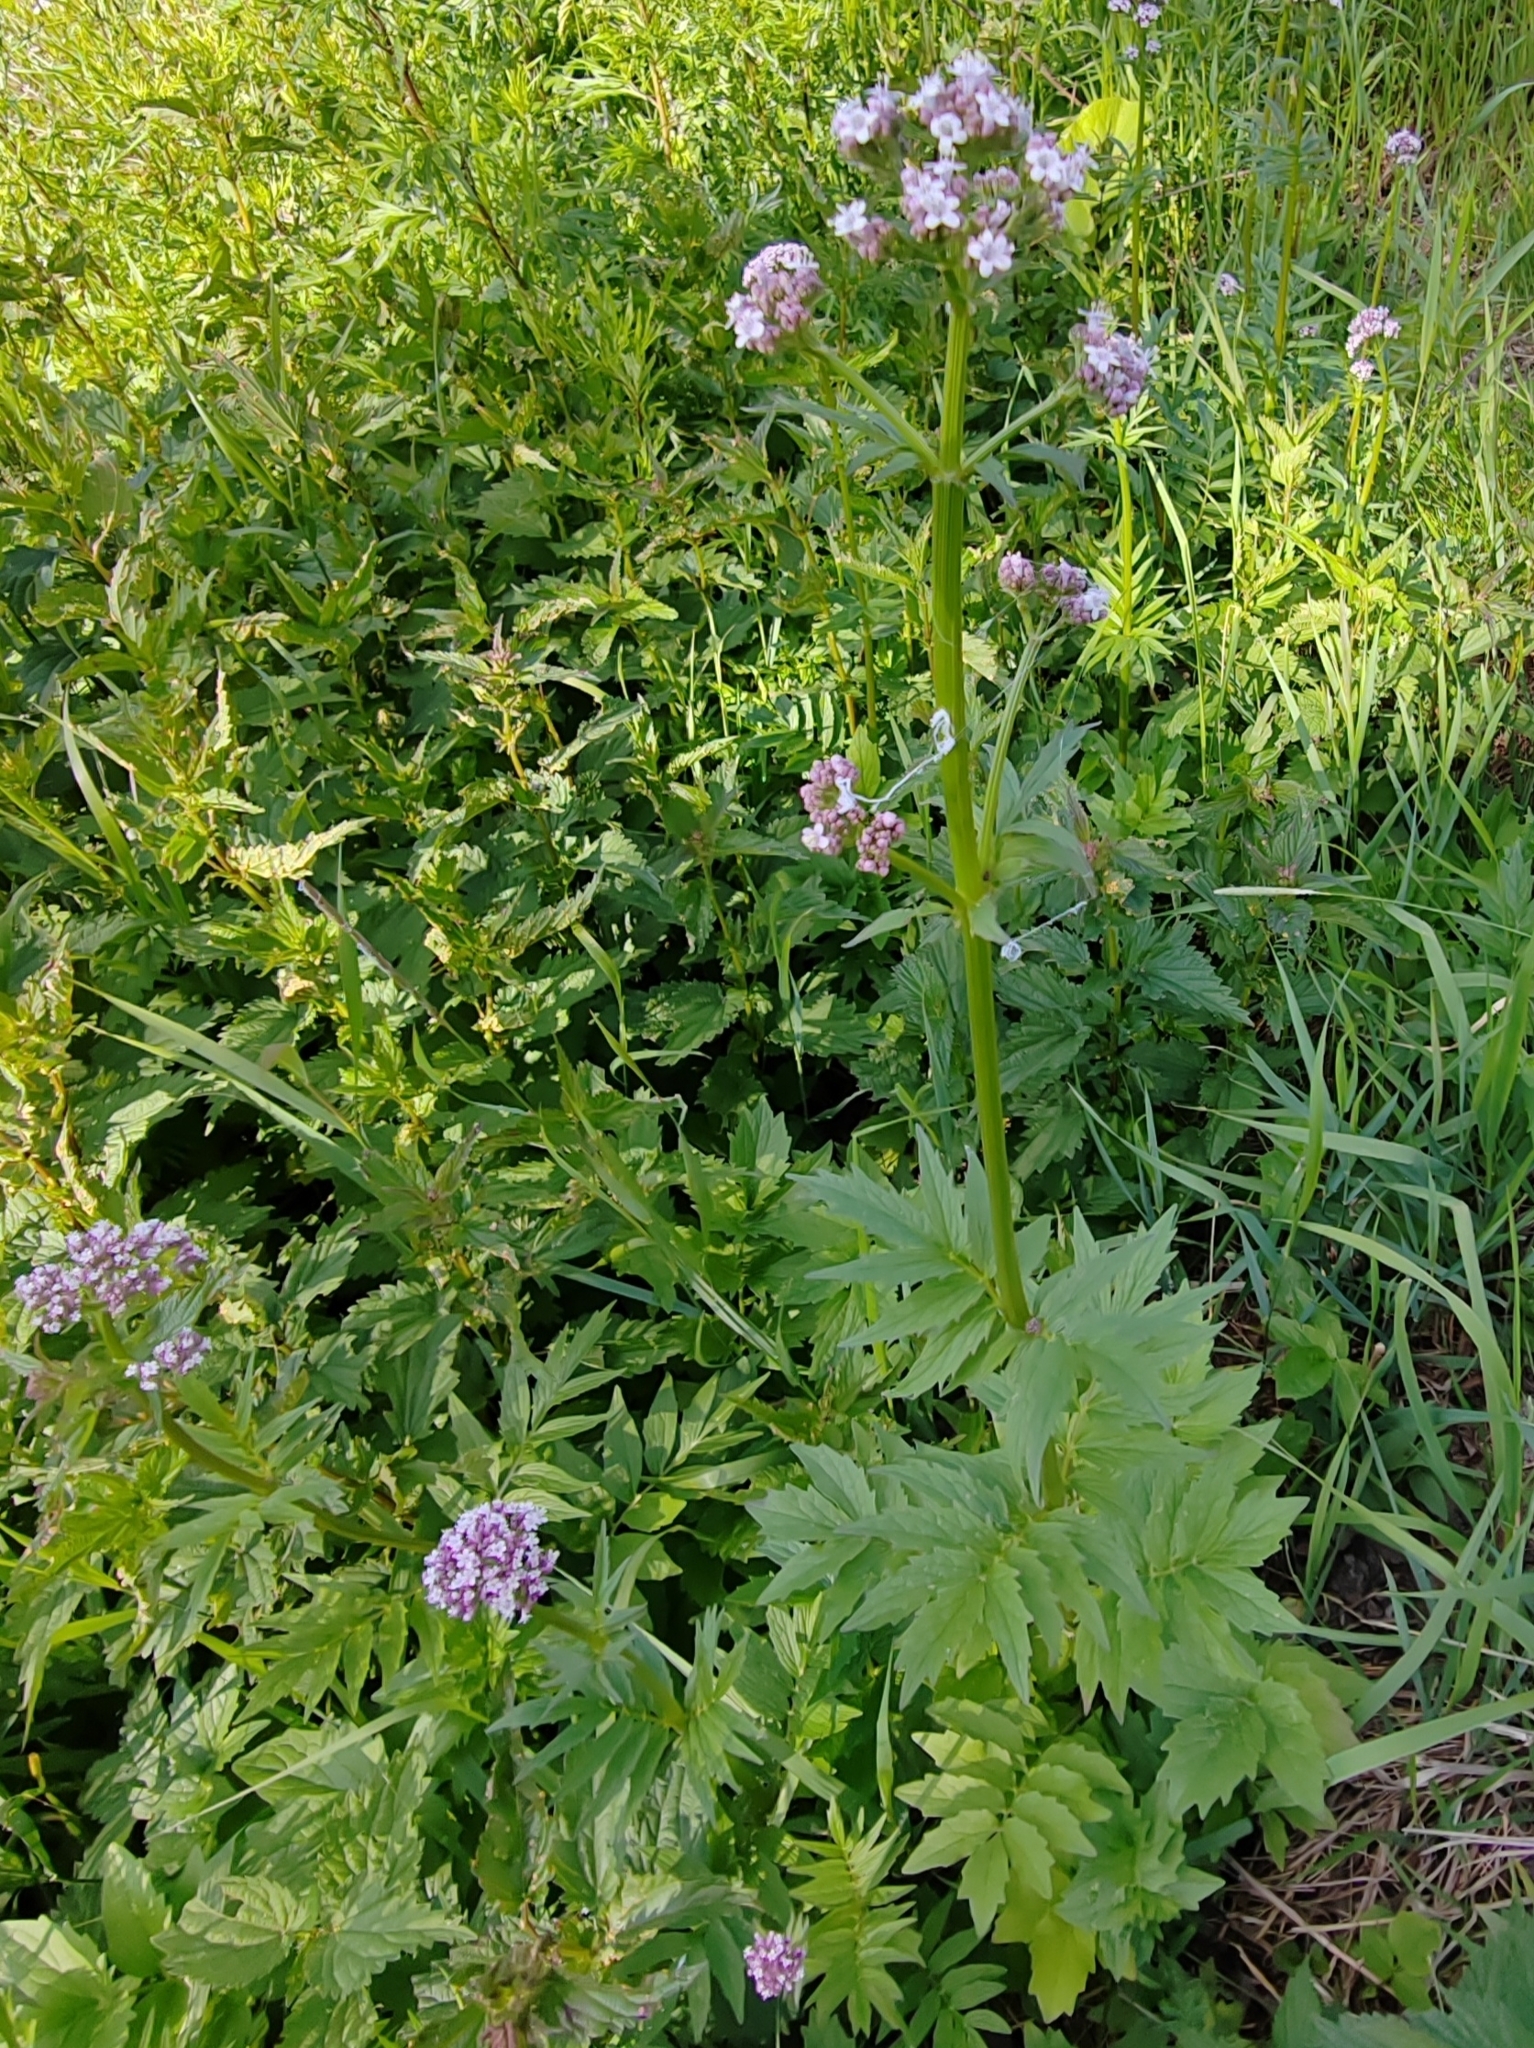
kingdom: Plantae
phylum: Tracheophyta
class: Magnoliopsida
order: Dipsacales
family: Caprifoliaceae
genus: Valeriana
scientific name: Valeriana wolgensis
